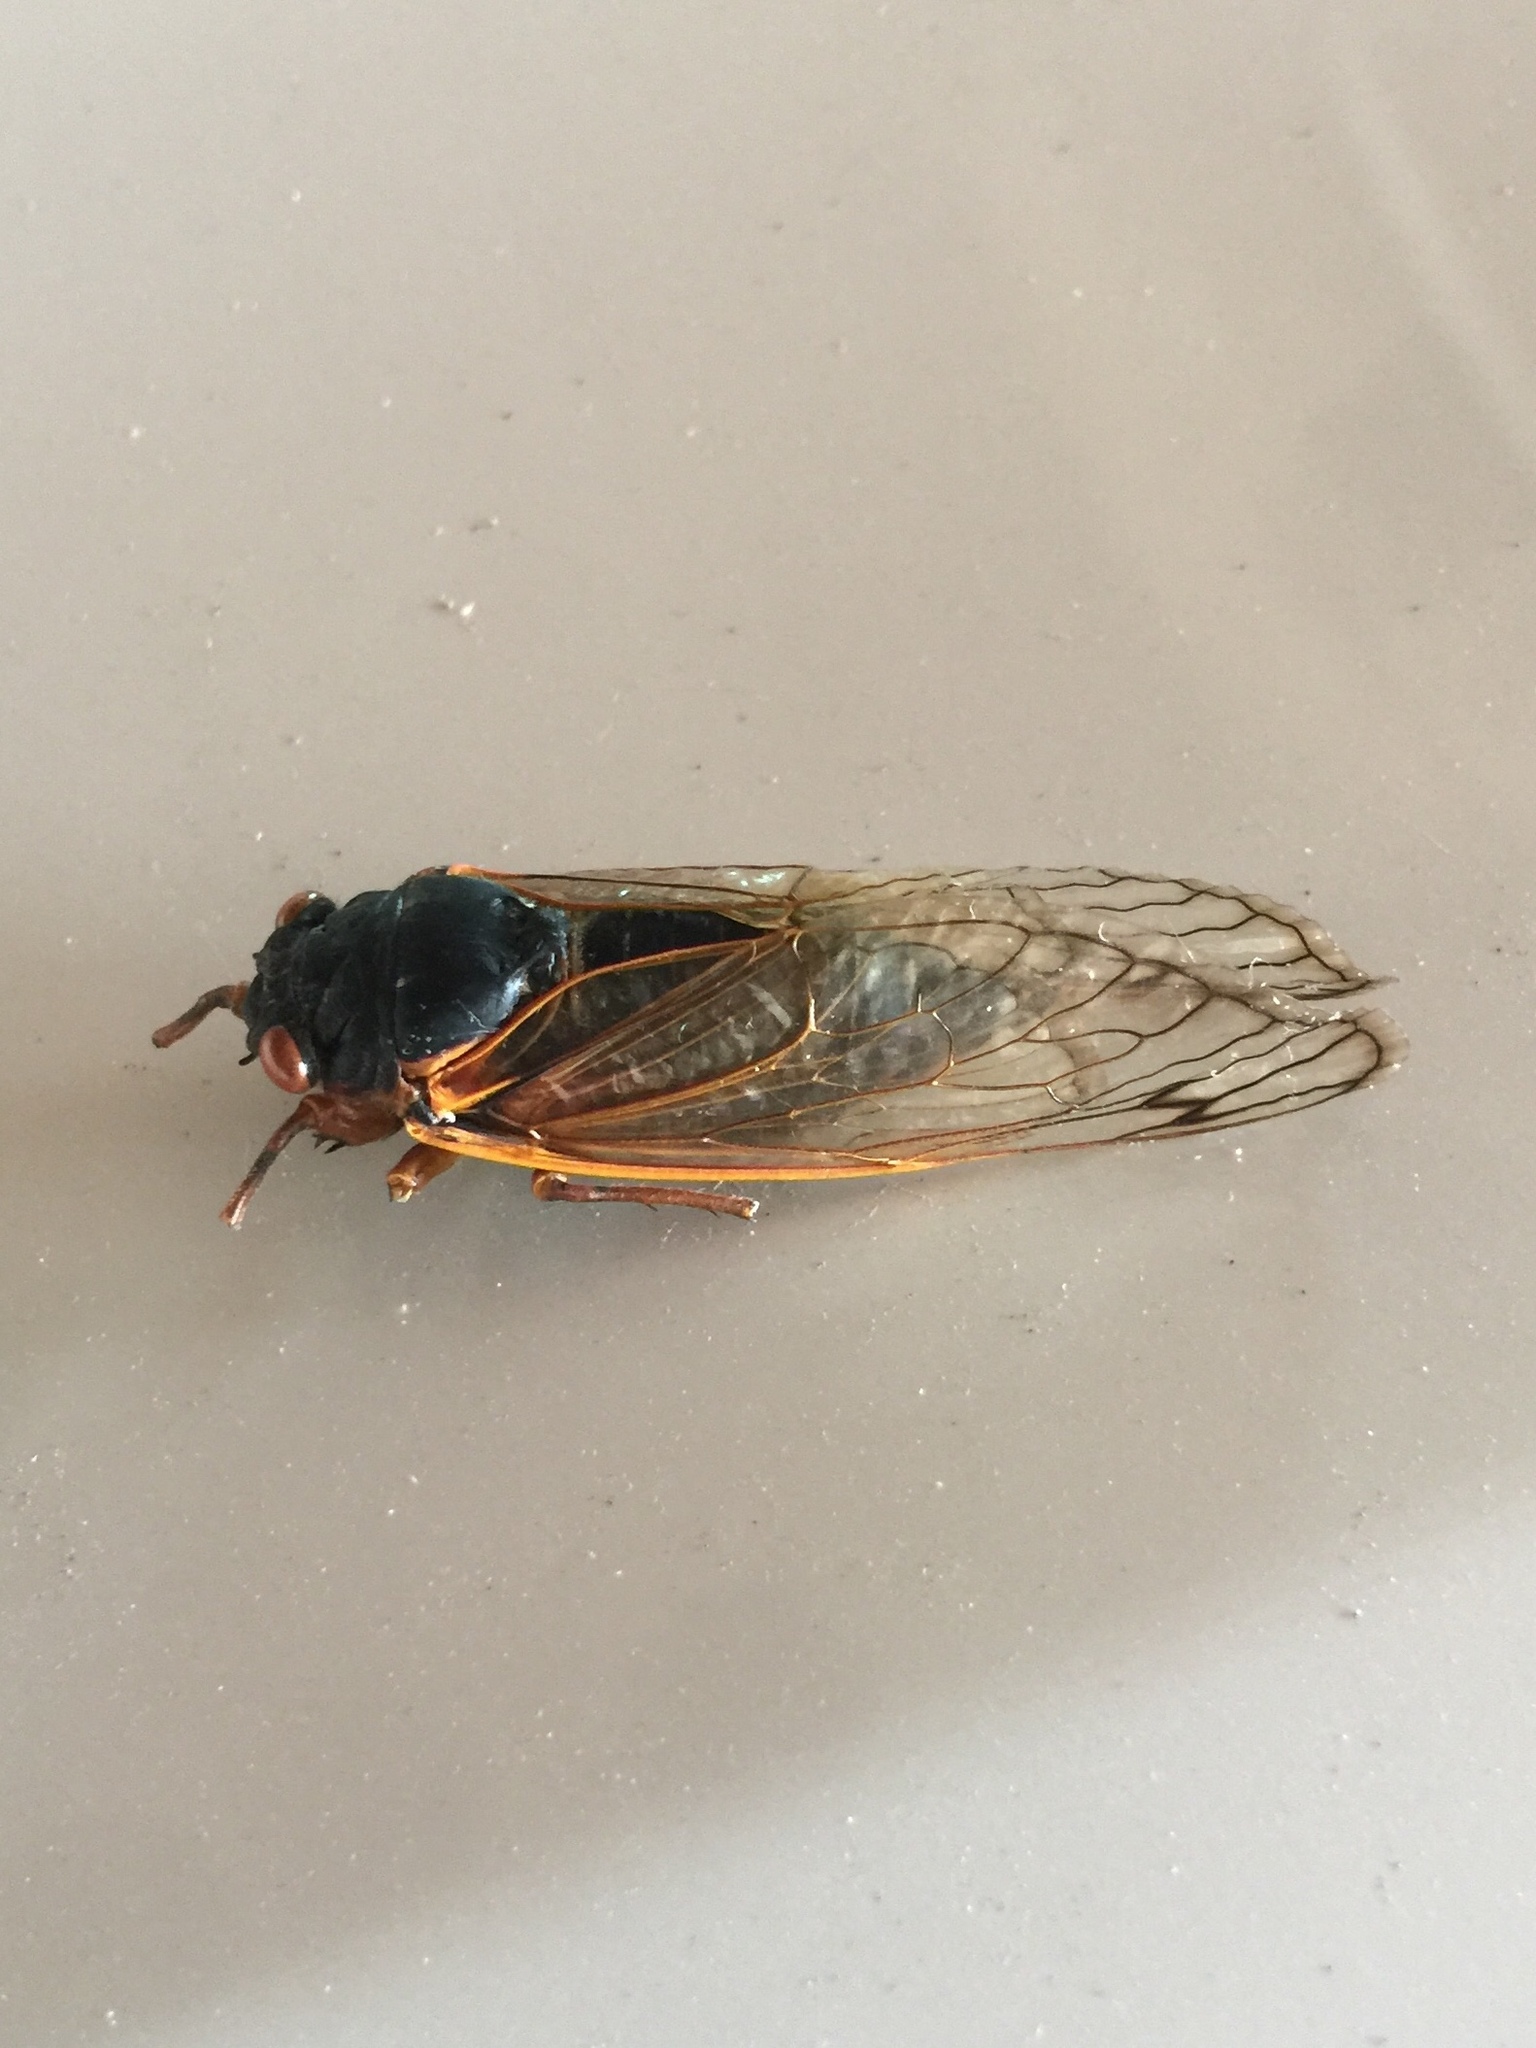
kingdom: Animalia
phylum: Arthropoda
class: Insecta
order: Hemiptera
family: Cicadidae
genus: Magicicada
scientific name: Magicicada septendecim
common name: Periodical cicada
